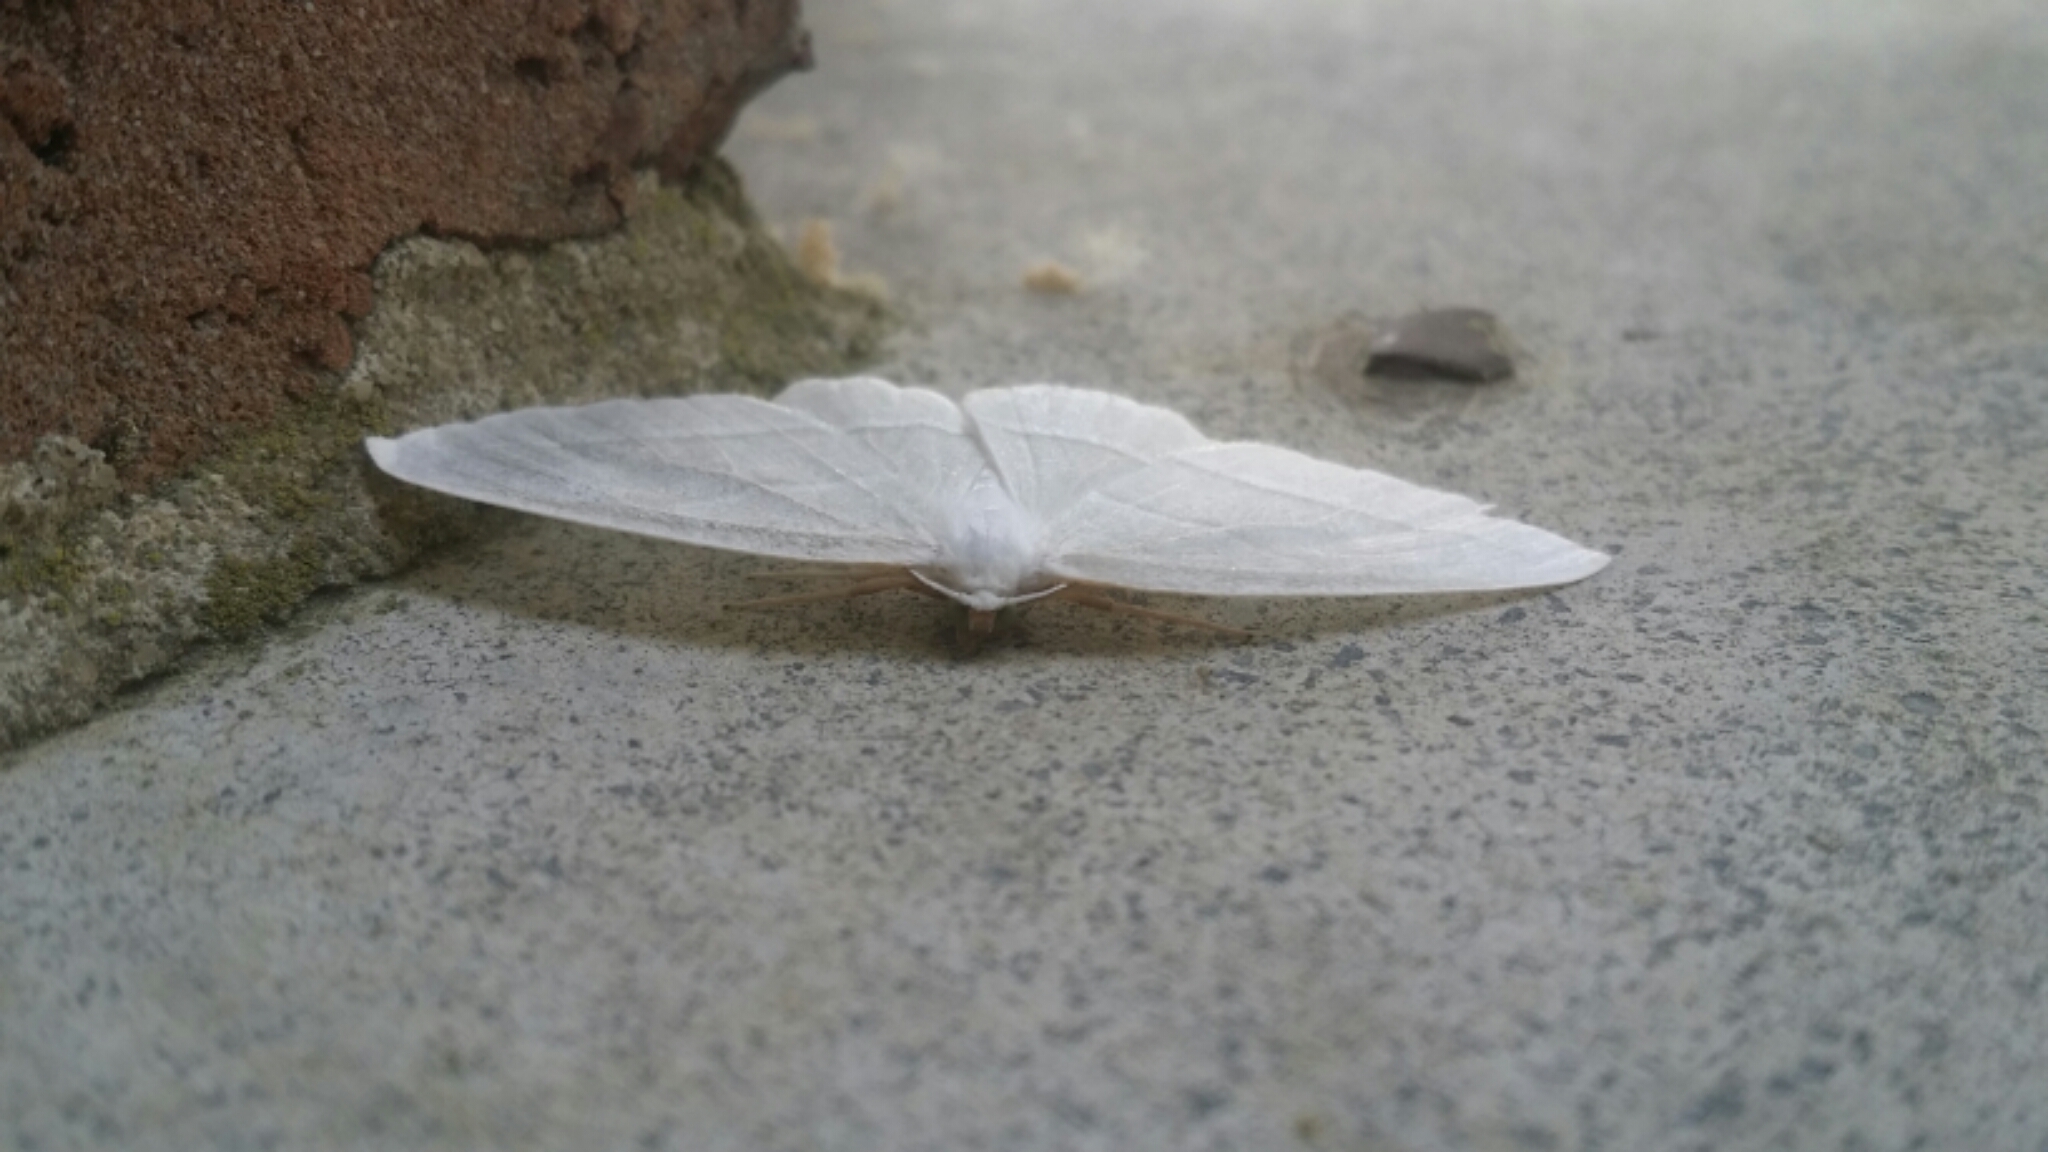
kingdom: Animalia
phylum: Arthropoda
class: Insecta
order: Lepidoptera
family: Geometridae
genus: Campaea
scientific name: Campaea perlata
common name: Fringed looper
